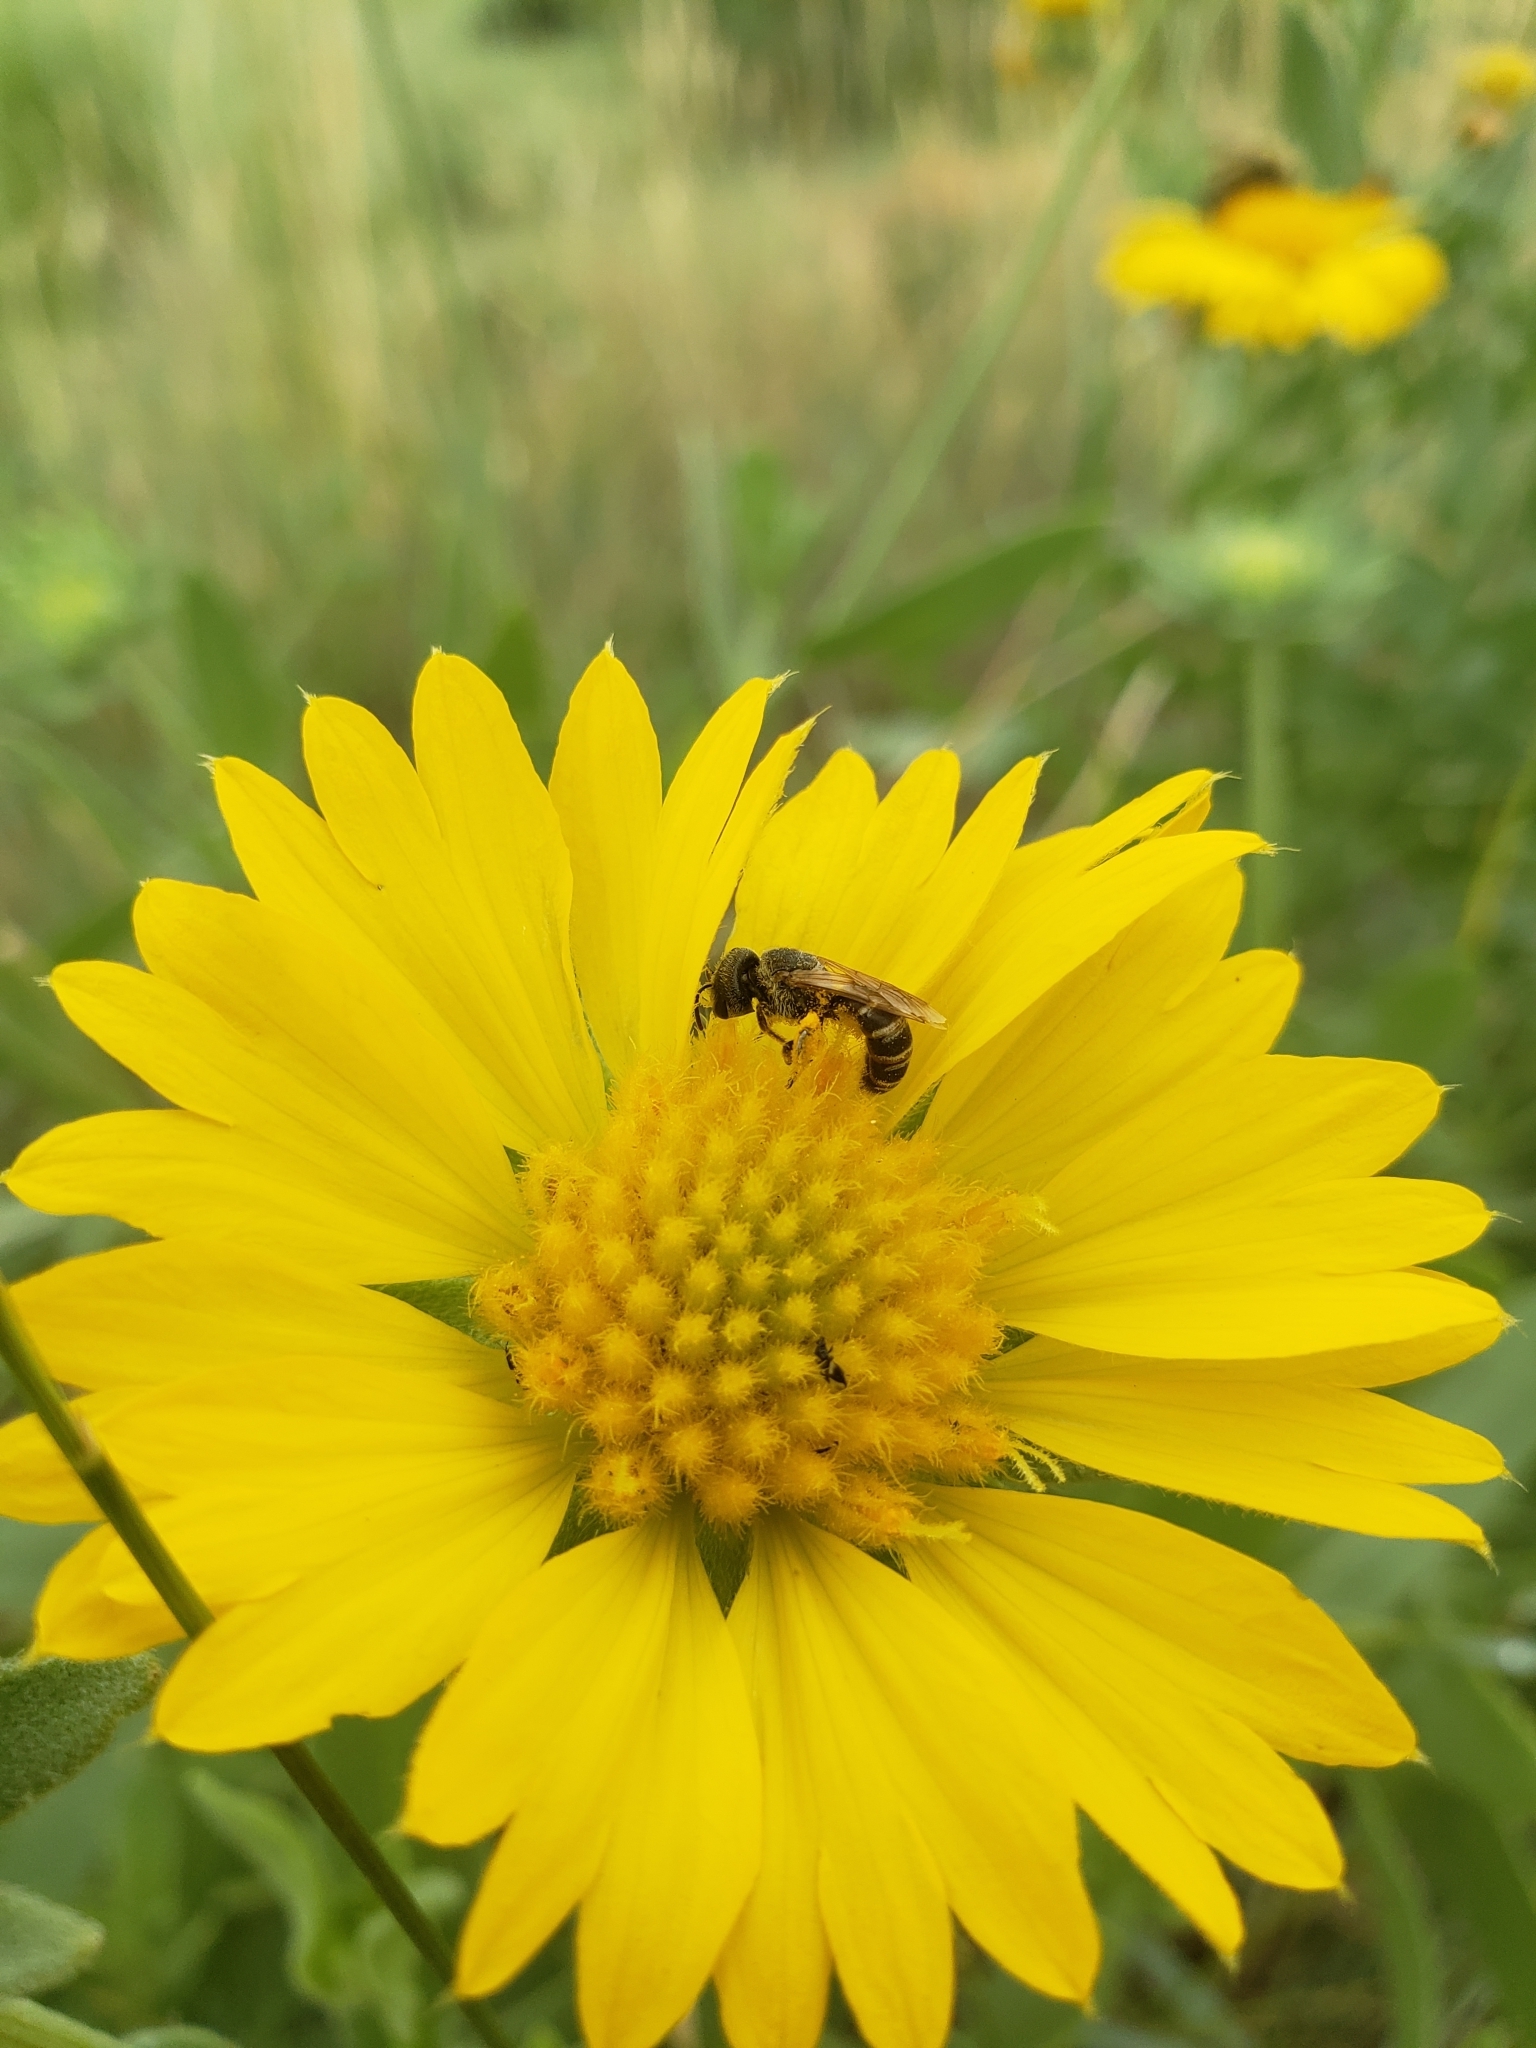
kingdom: Animalia
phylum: Arthropoda
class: Insecta
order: Hymenoptera
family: Halictidae
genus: Halictus
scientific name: Halictus ligatus
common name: Ligated furrow bee
